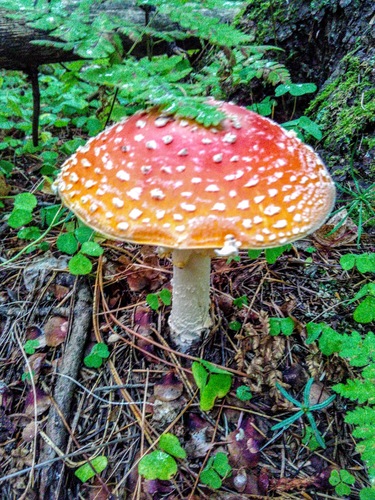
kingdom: Fungi
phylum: Basidiomycota
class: Agaricomycetes
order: Agaricales
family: Amanitaceae
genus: Amanita
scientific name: Amanita muscaria
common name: Fly agaric
